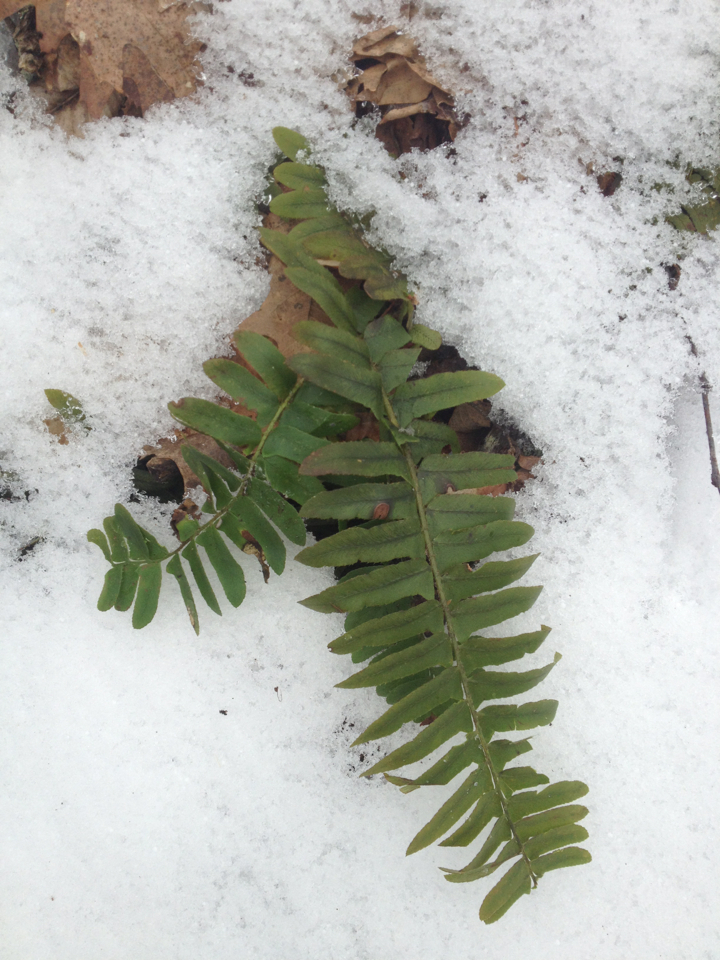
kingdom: Plantae
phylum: Tracheophyta
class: Polypodiopsida
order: Polypodiales
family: Dryopteridaceae
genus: Polystichum
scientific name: Polystichum acrostichoides
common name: Christmas fern
